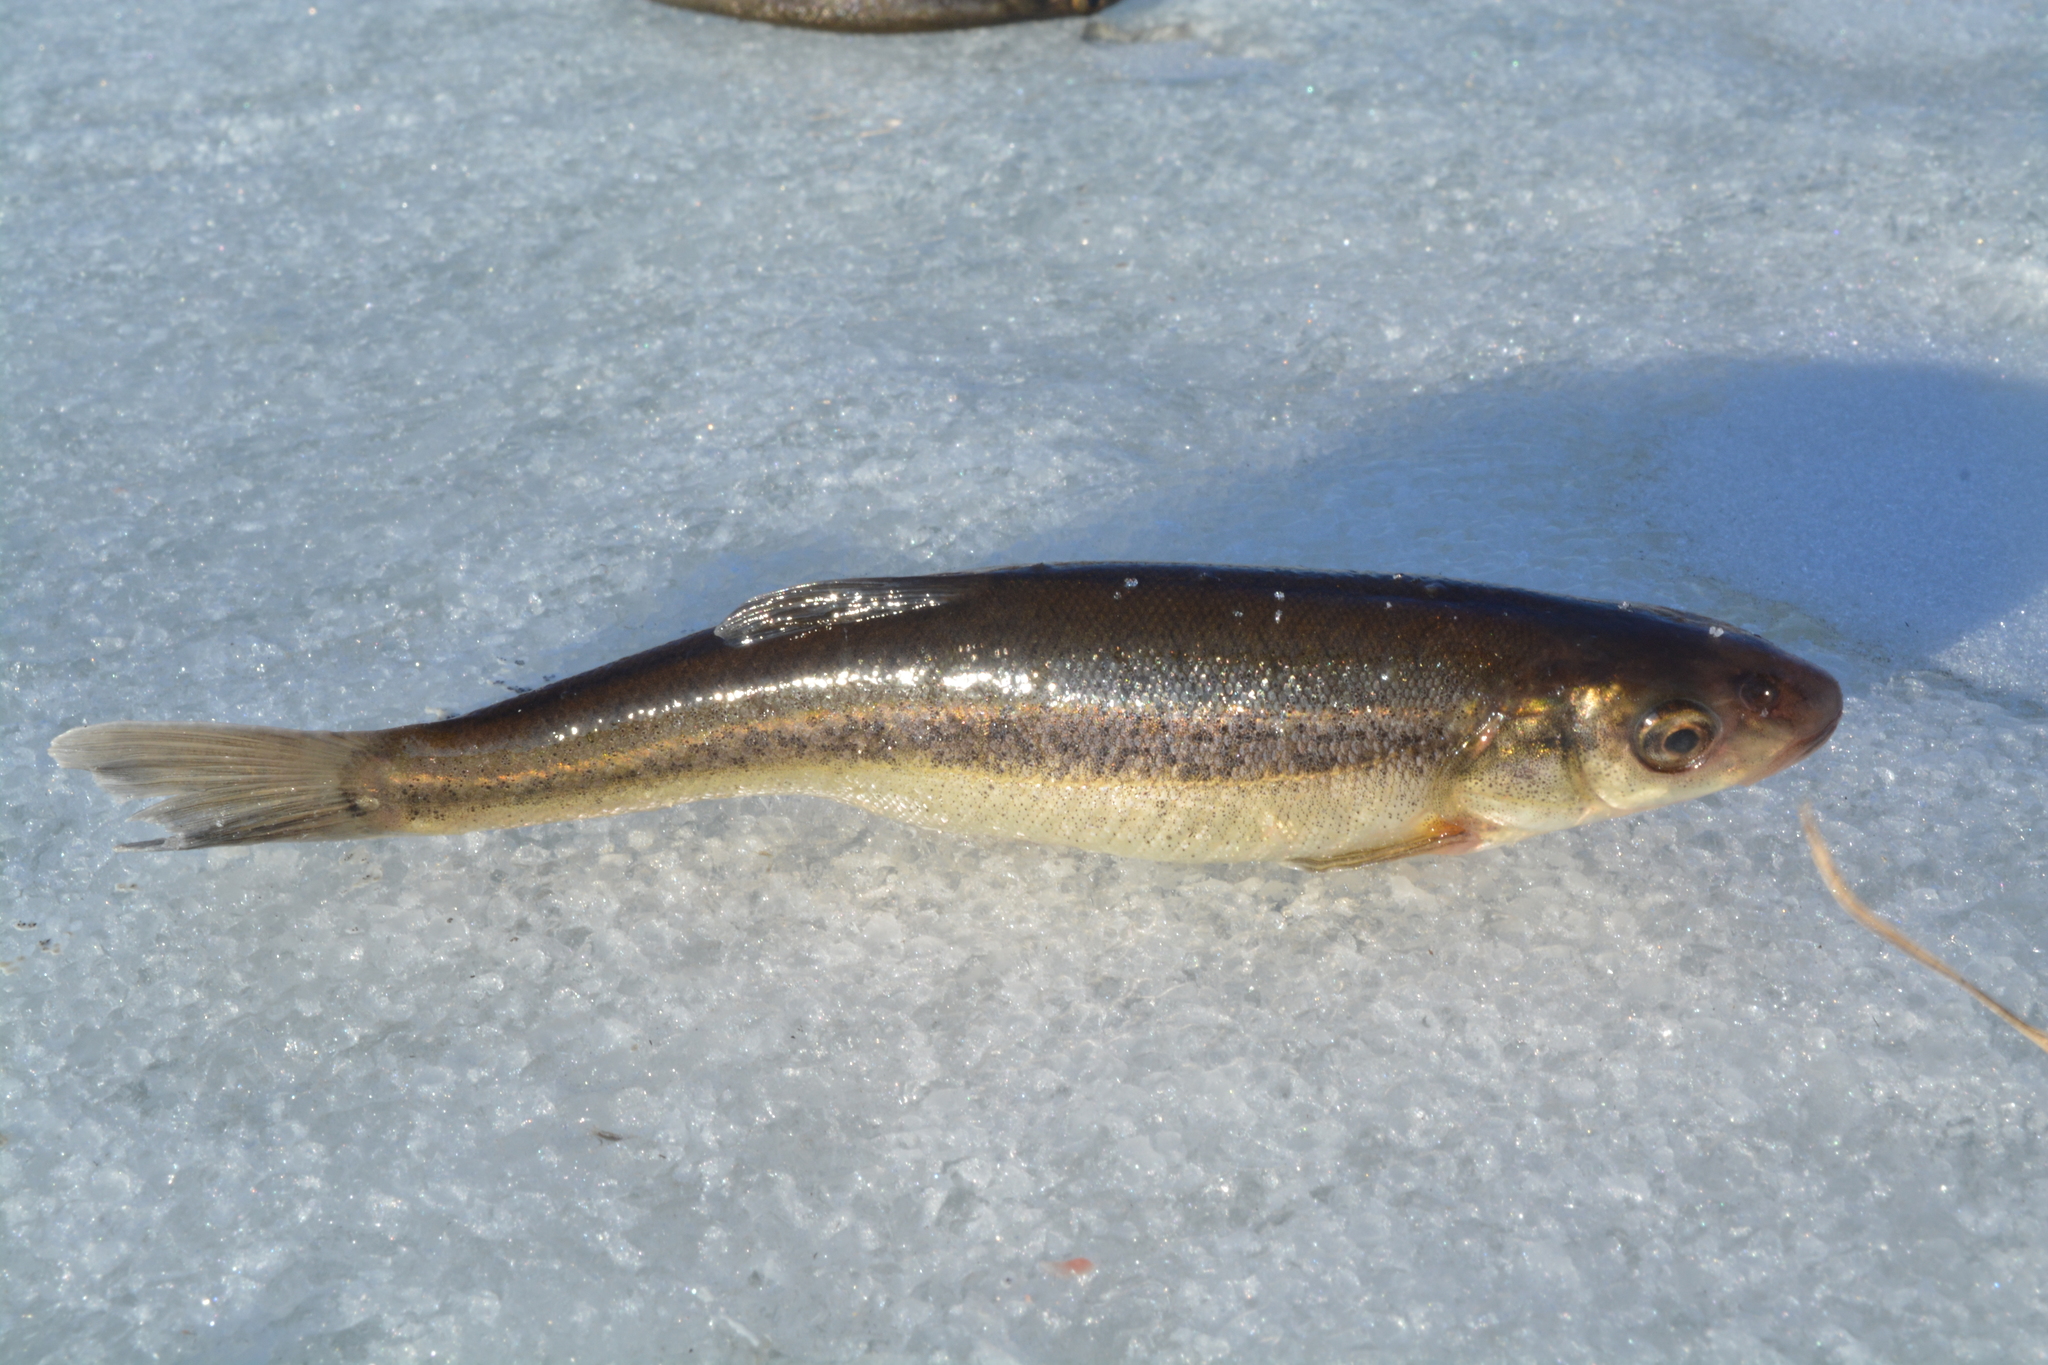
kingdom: Animalia
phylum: Chordata
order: Cypriniformes
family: Cyprinidae
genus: Rhynchocypris
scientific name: Rhynchocypris lagowskii
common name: Lagowsky's minnow
